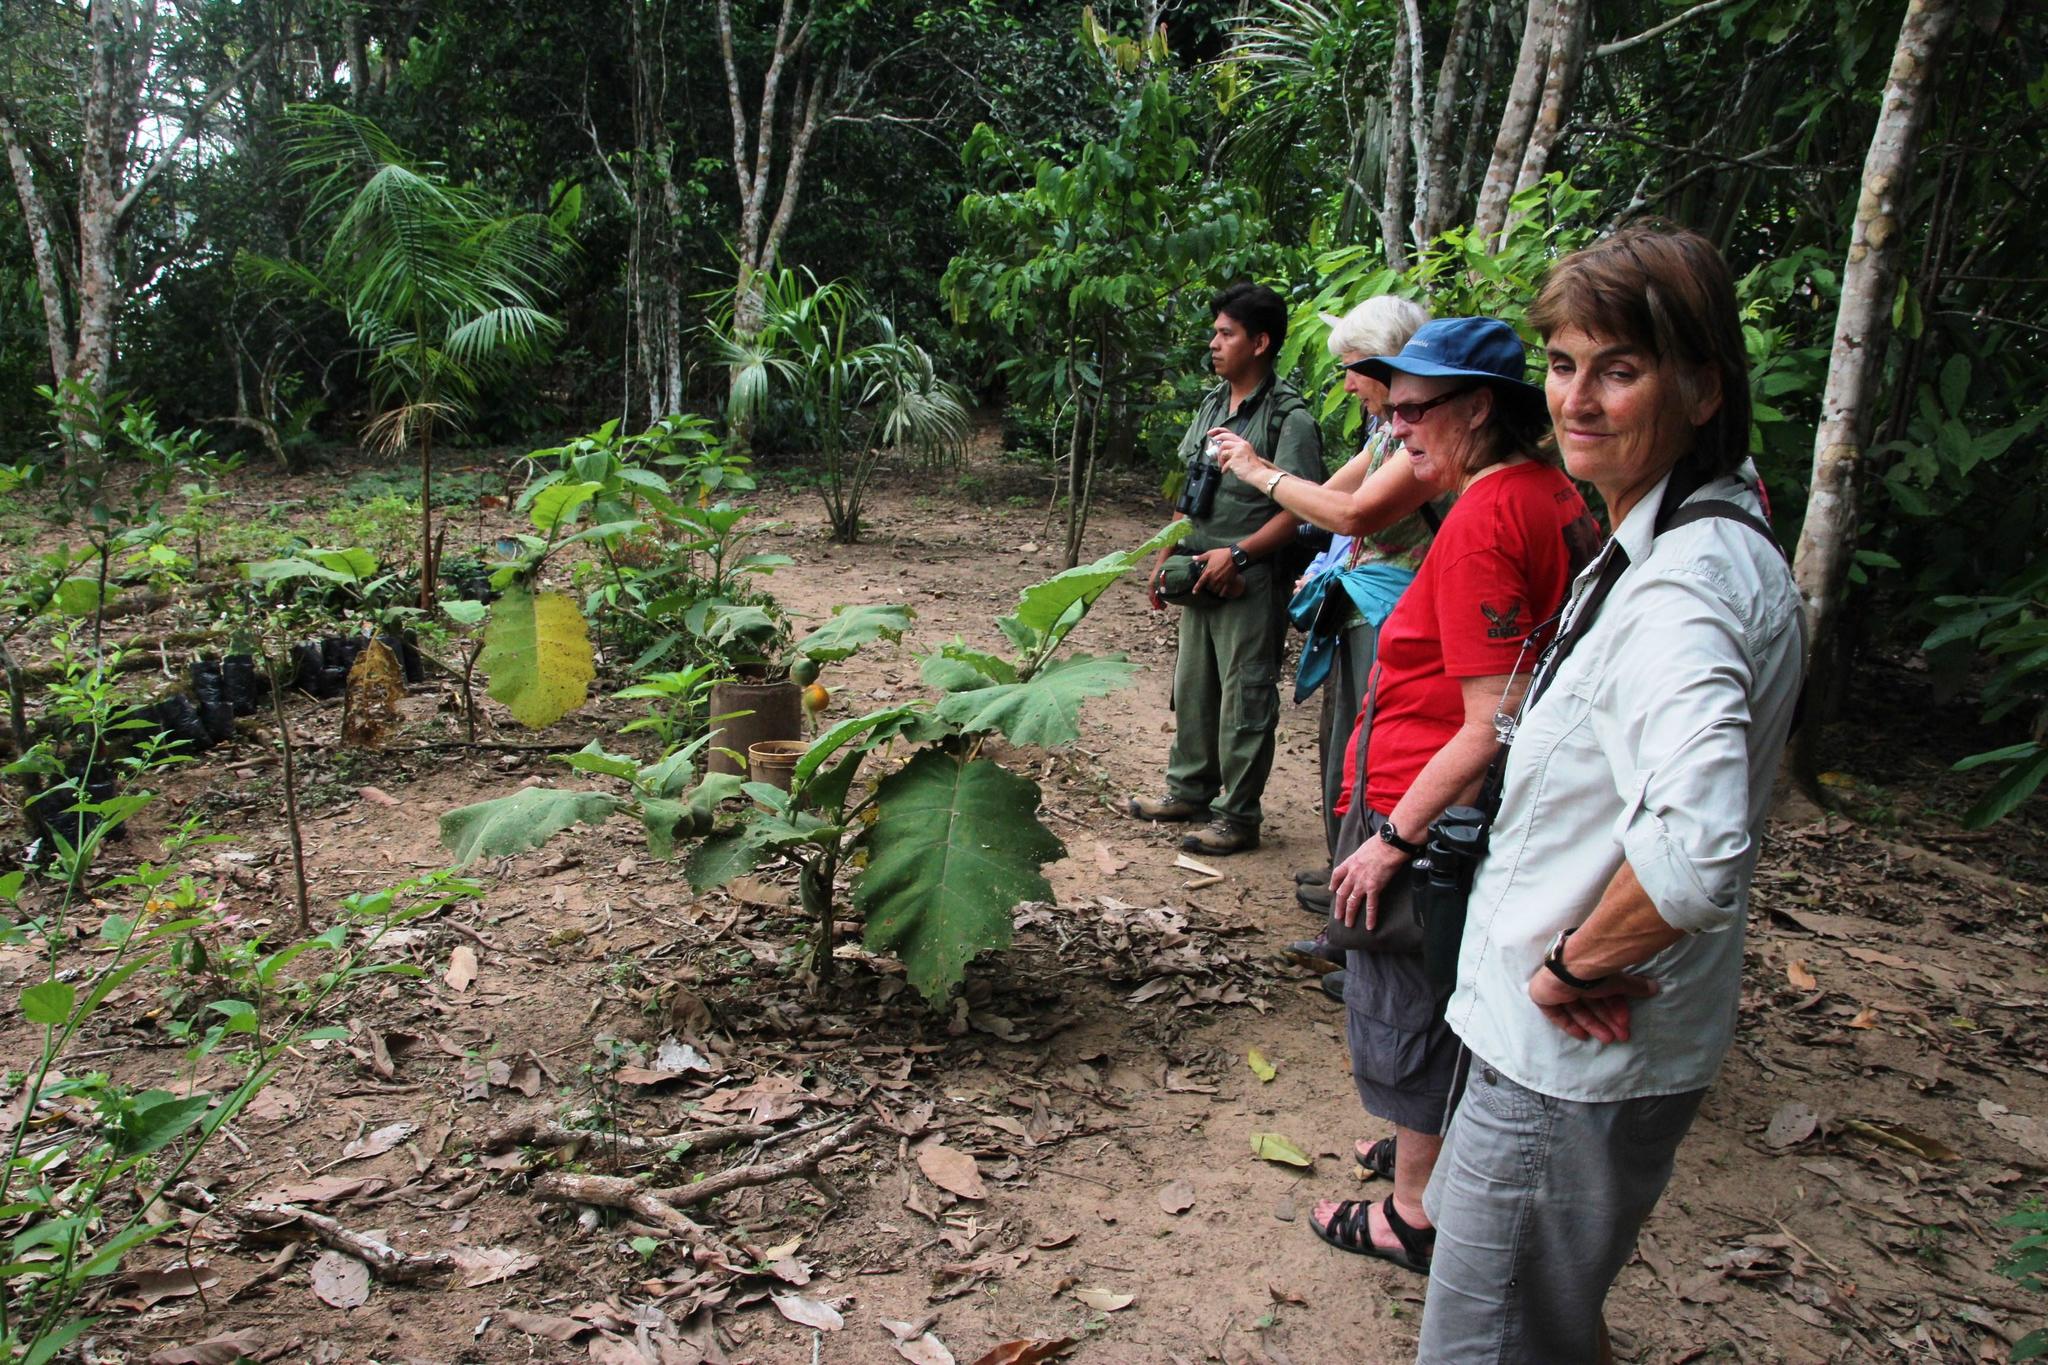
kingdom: Plantae
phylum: Tracheophyta
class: Magnoliopsida
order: Solanales
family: Solanaceae
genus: Solanum
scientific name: Solanum sessiliflorum
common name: Orinoco-apple
